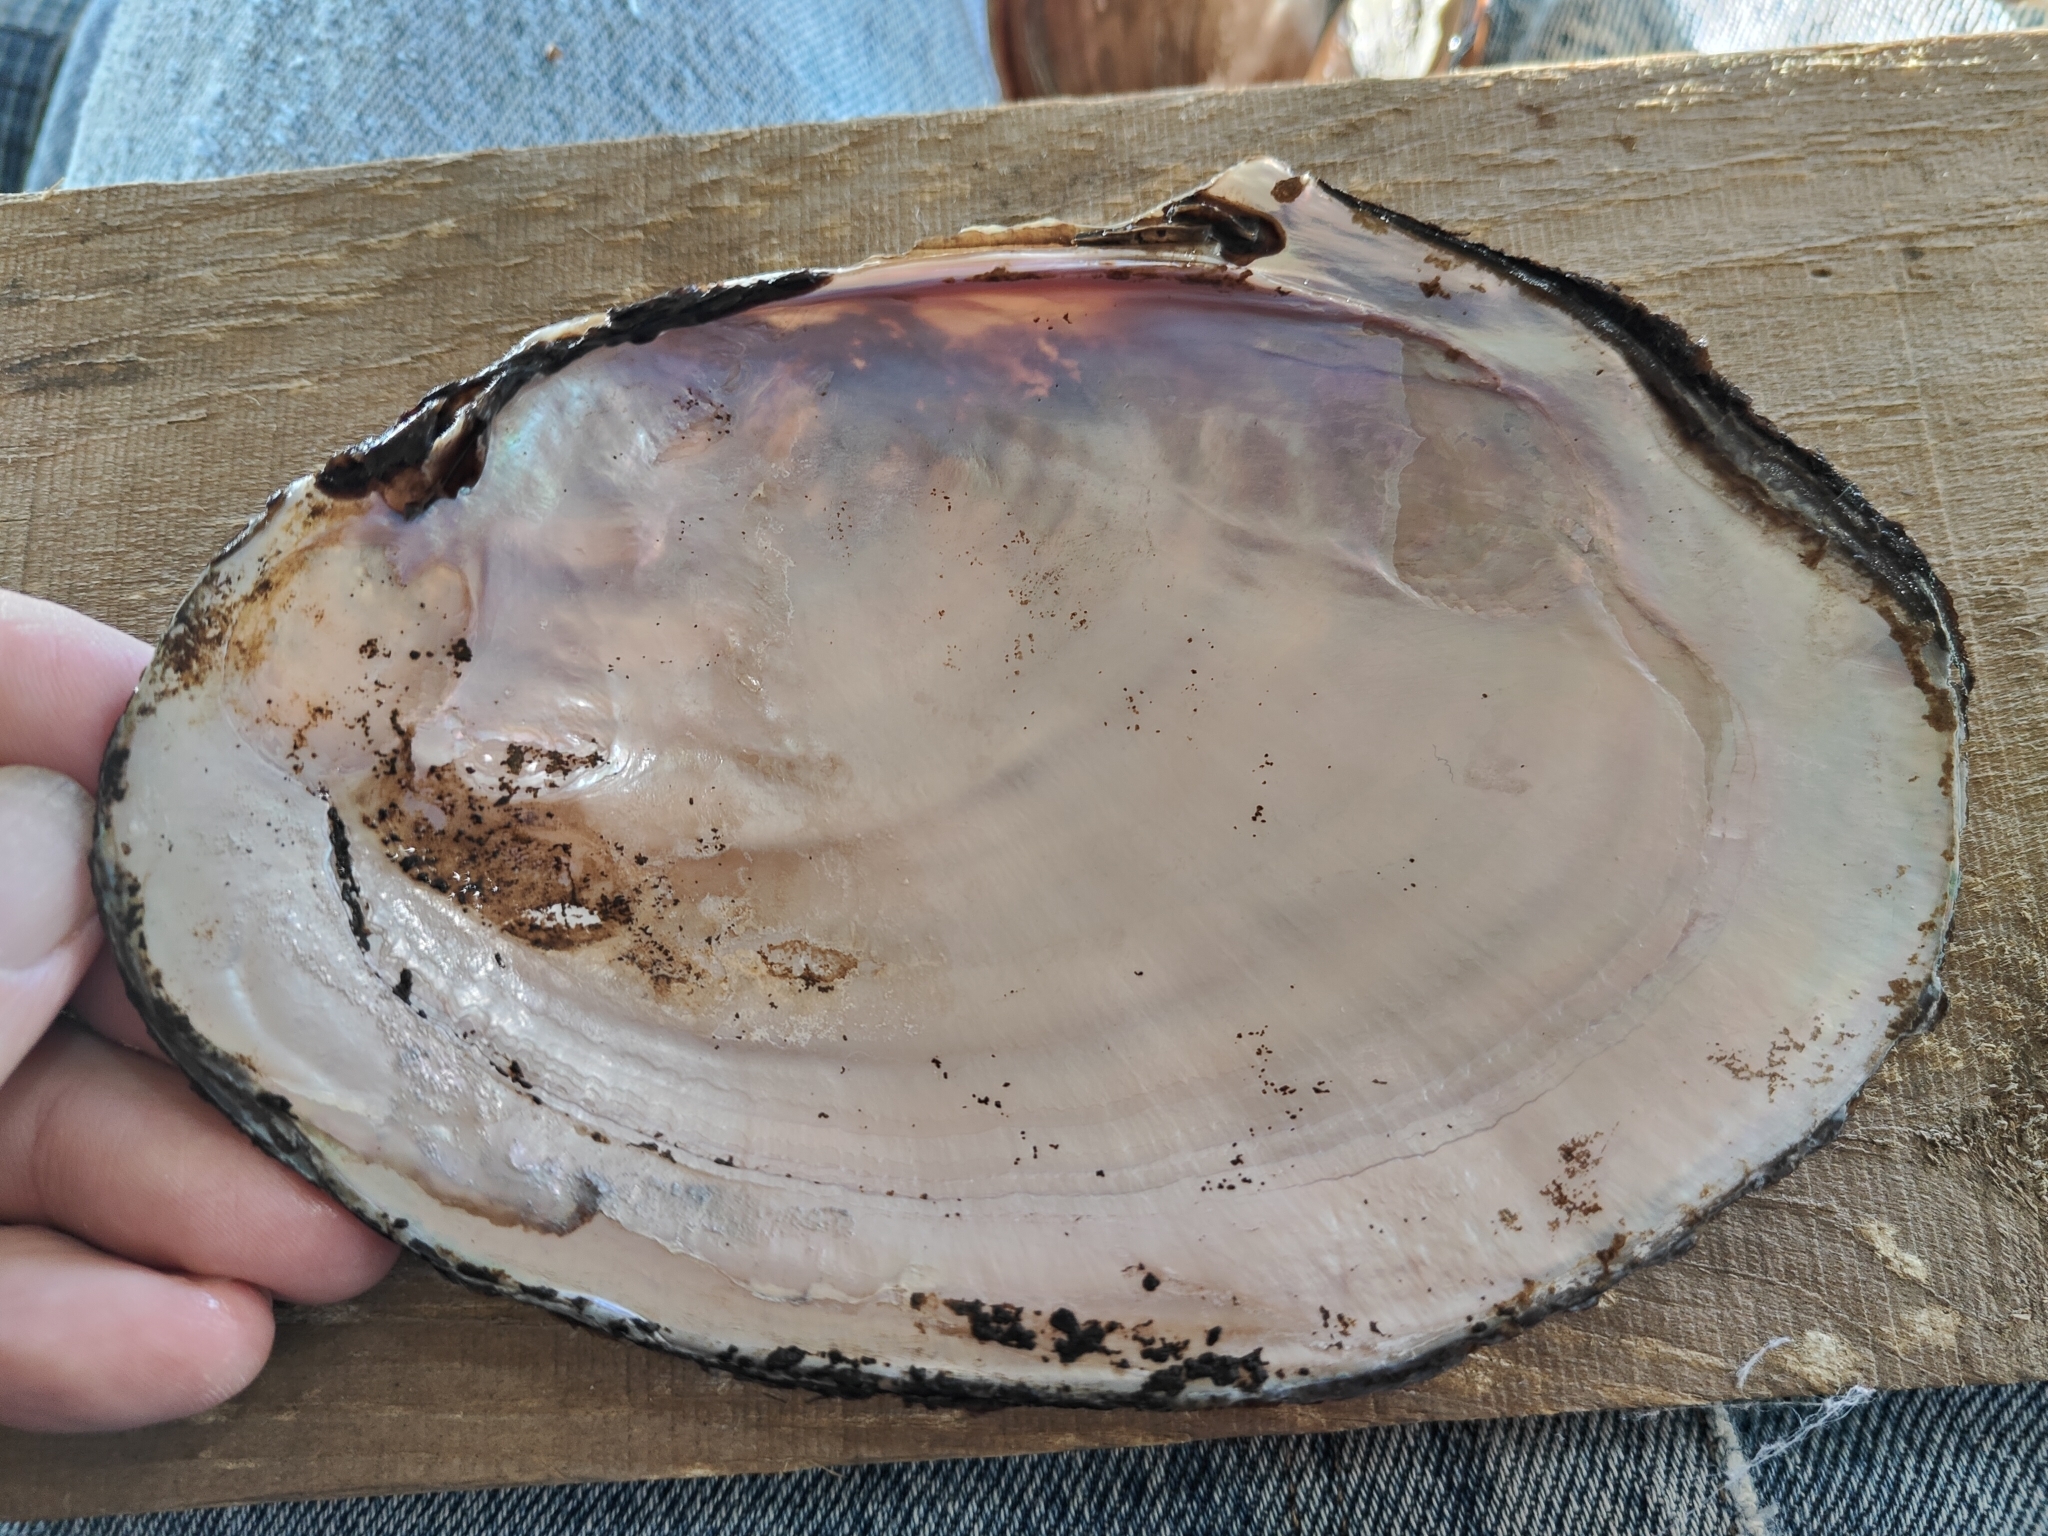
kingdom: Animalia
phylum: Mollusca
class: Bivalvia
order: Unionida
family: Unionidae
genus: Potamilus
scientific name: Potamilus ohiensis
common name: Pink papershell
